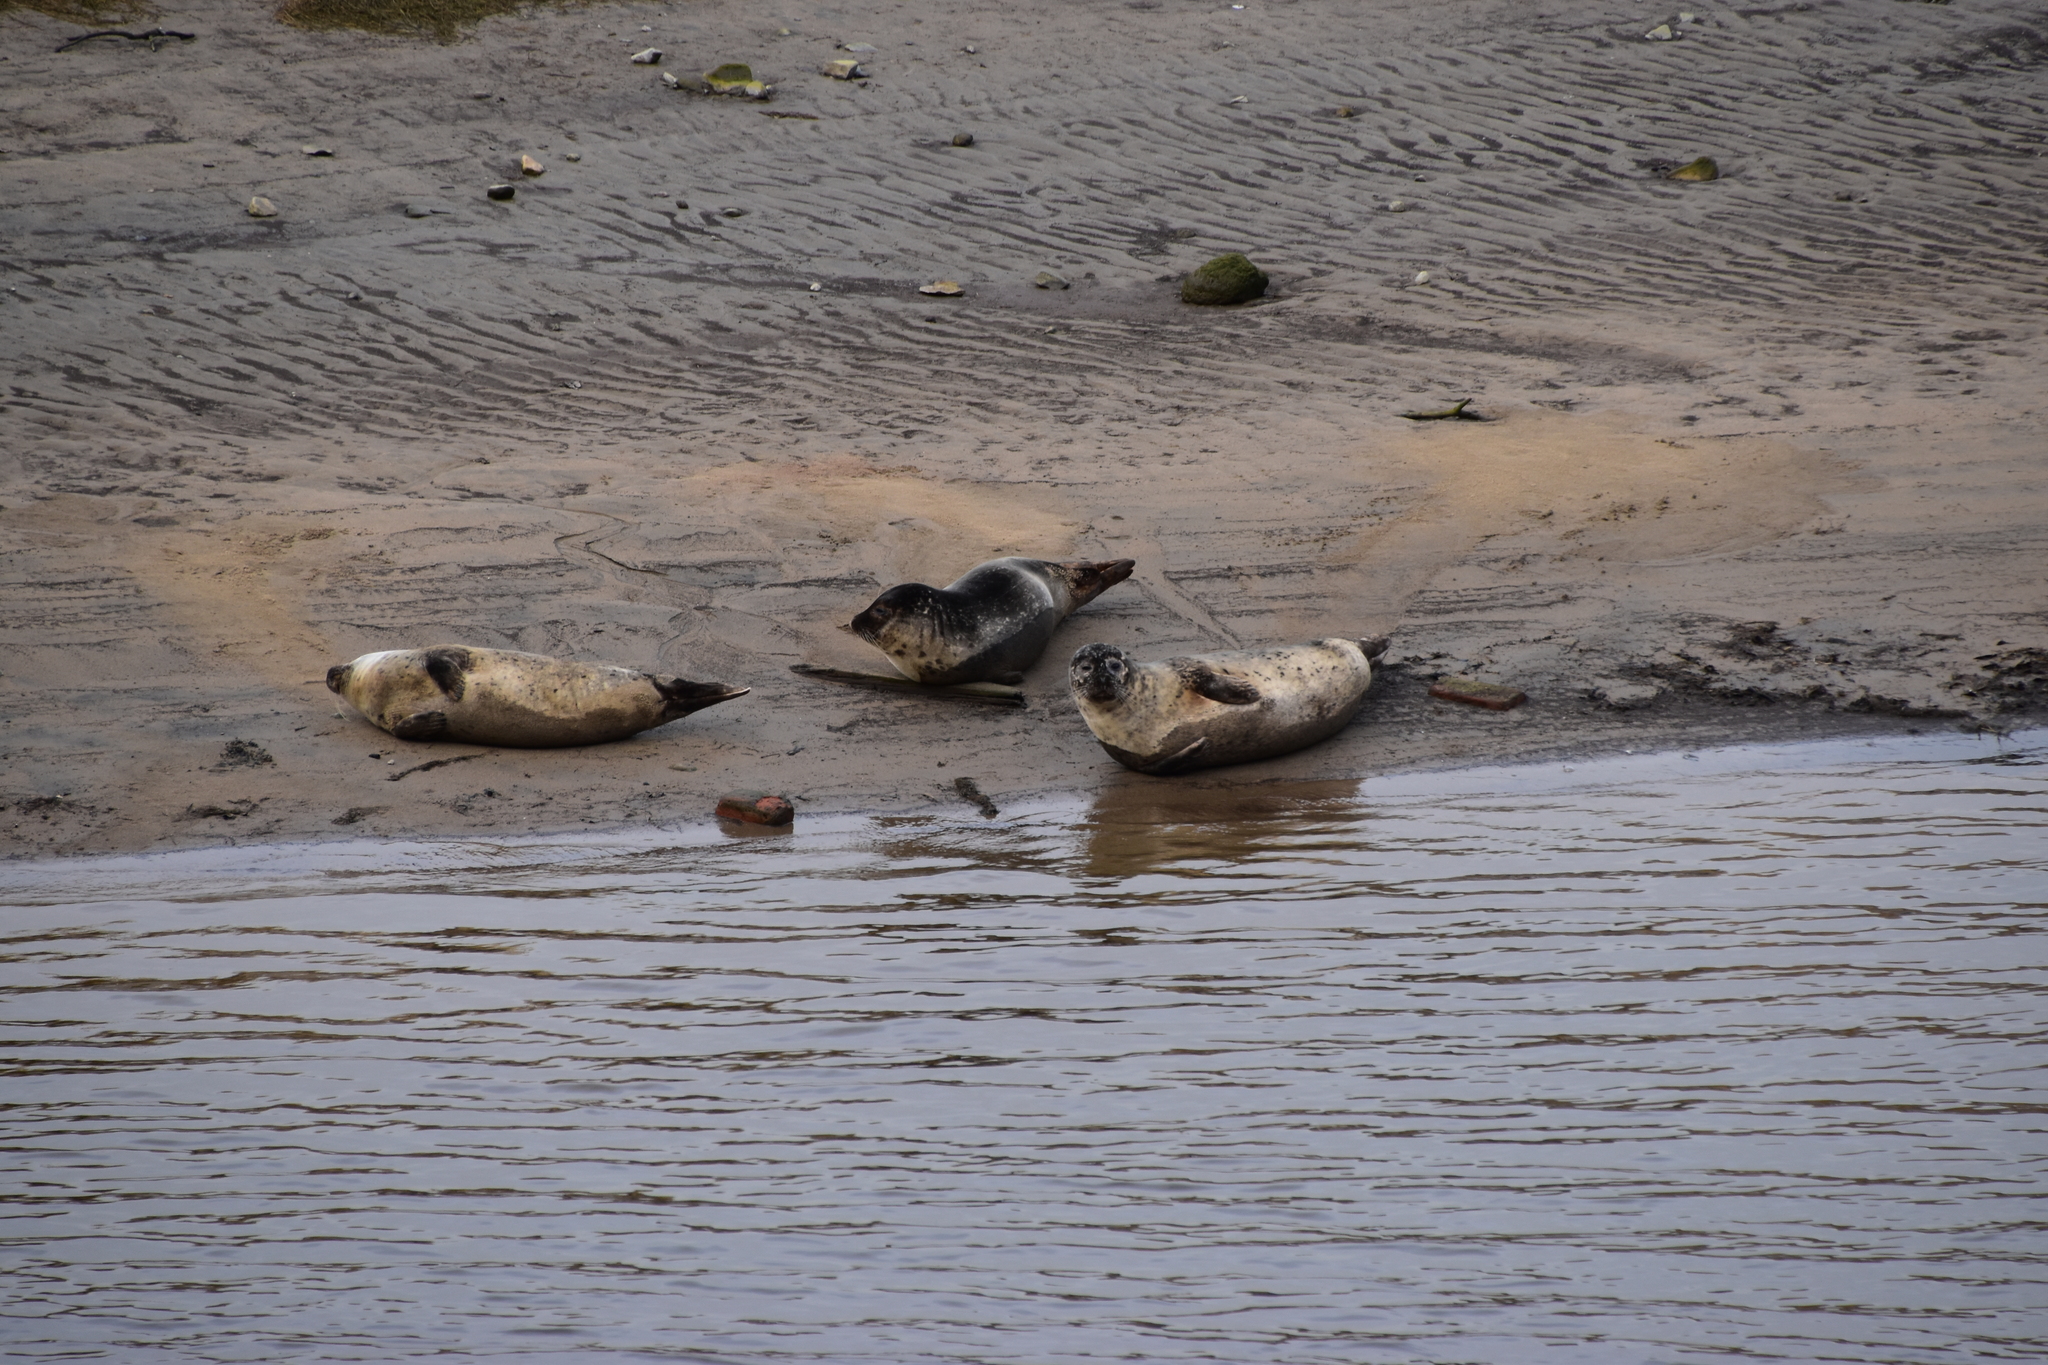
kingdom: Animalia
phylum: Chordata
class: Mammalia
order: Carnivora
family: Phocidae
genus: Phoca
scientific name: Phoca vitulina
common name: Harbor seal
